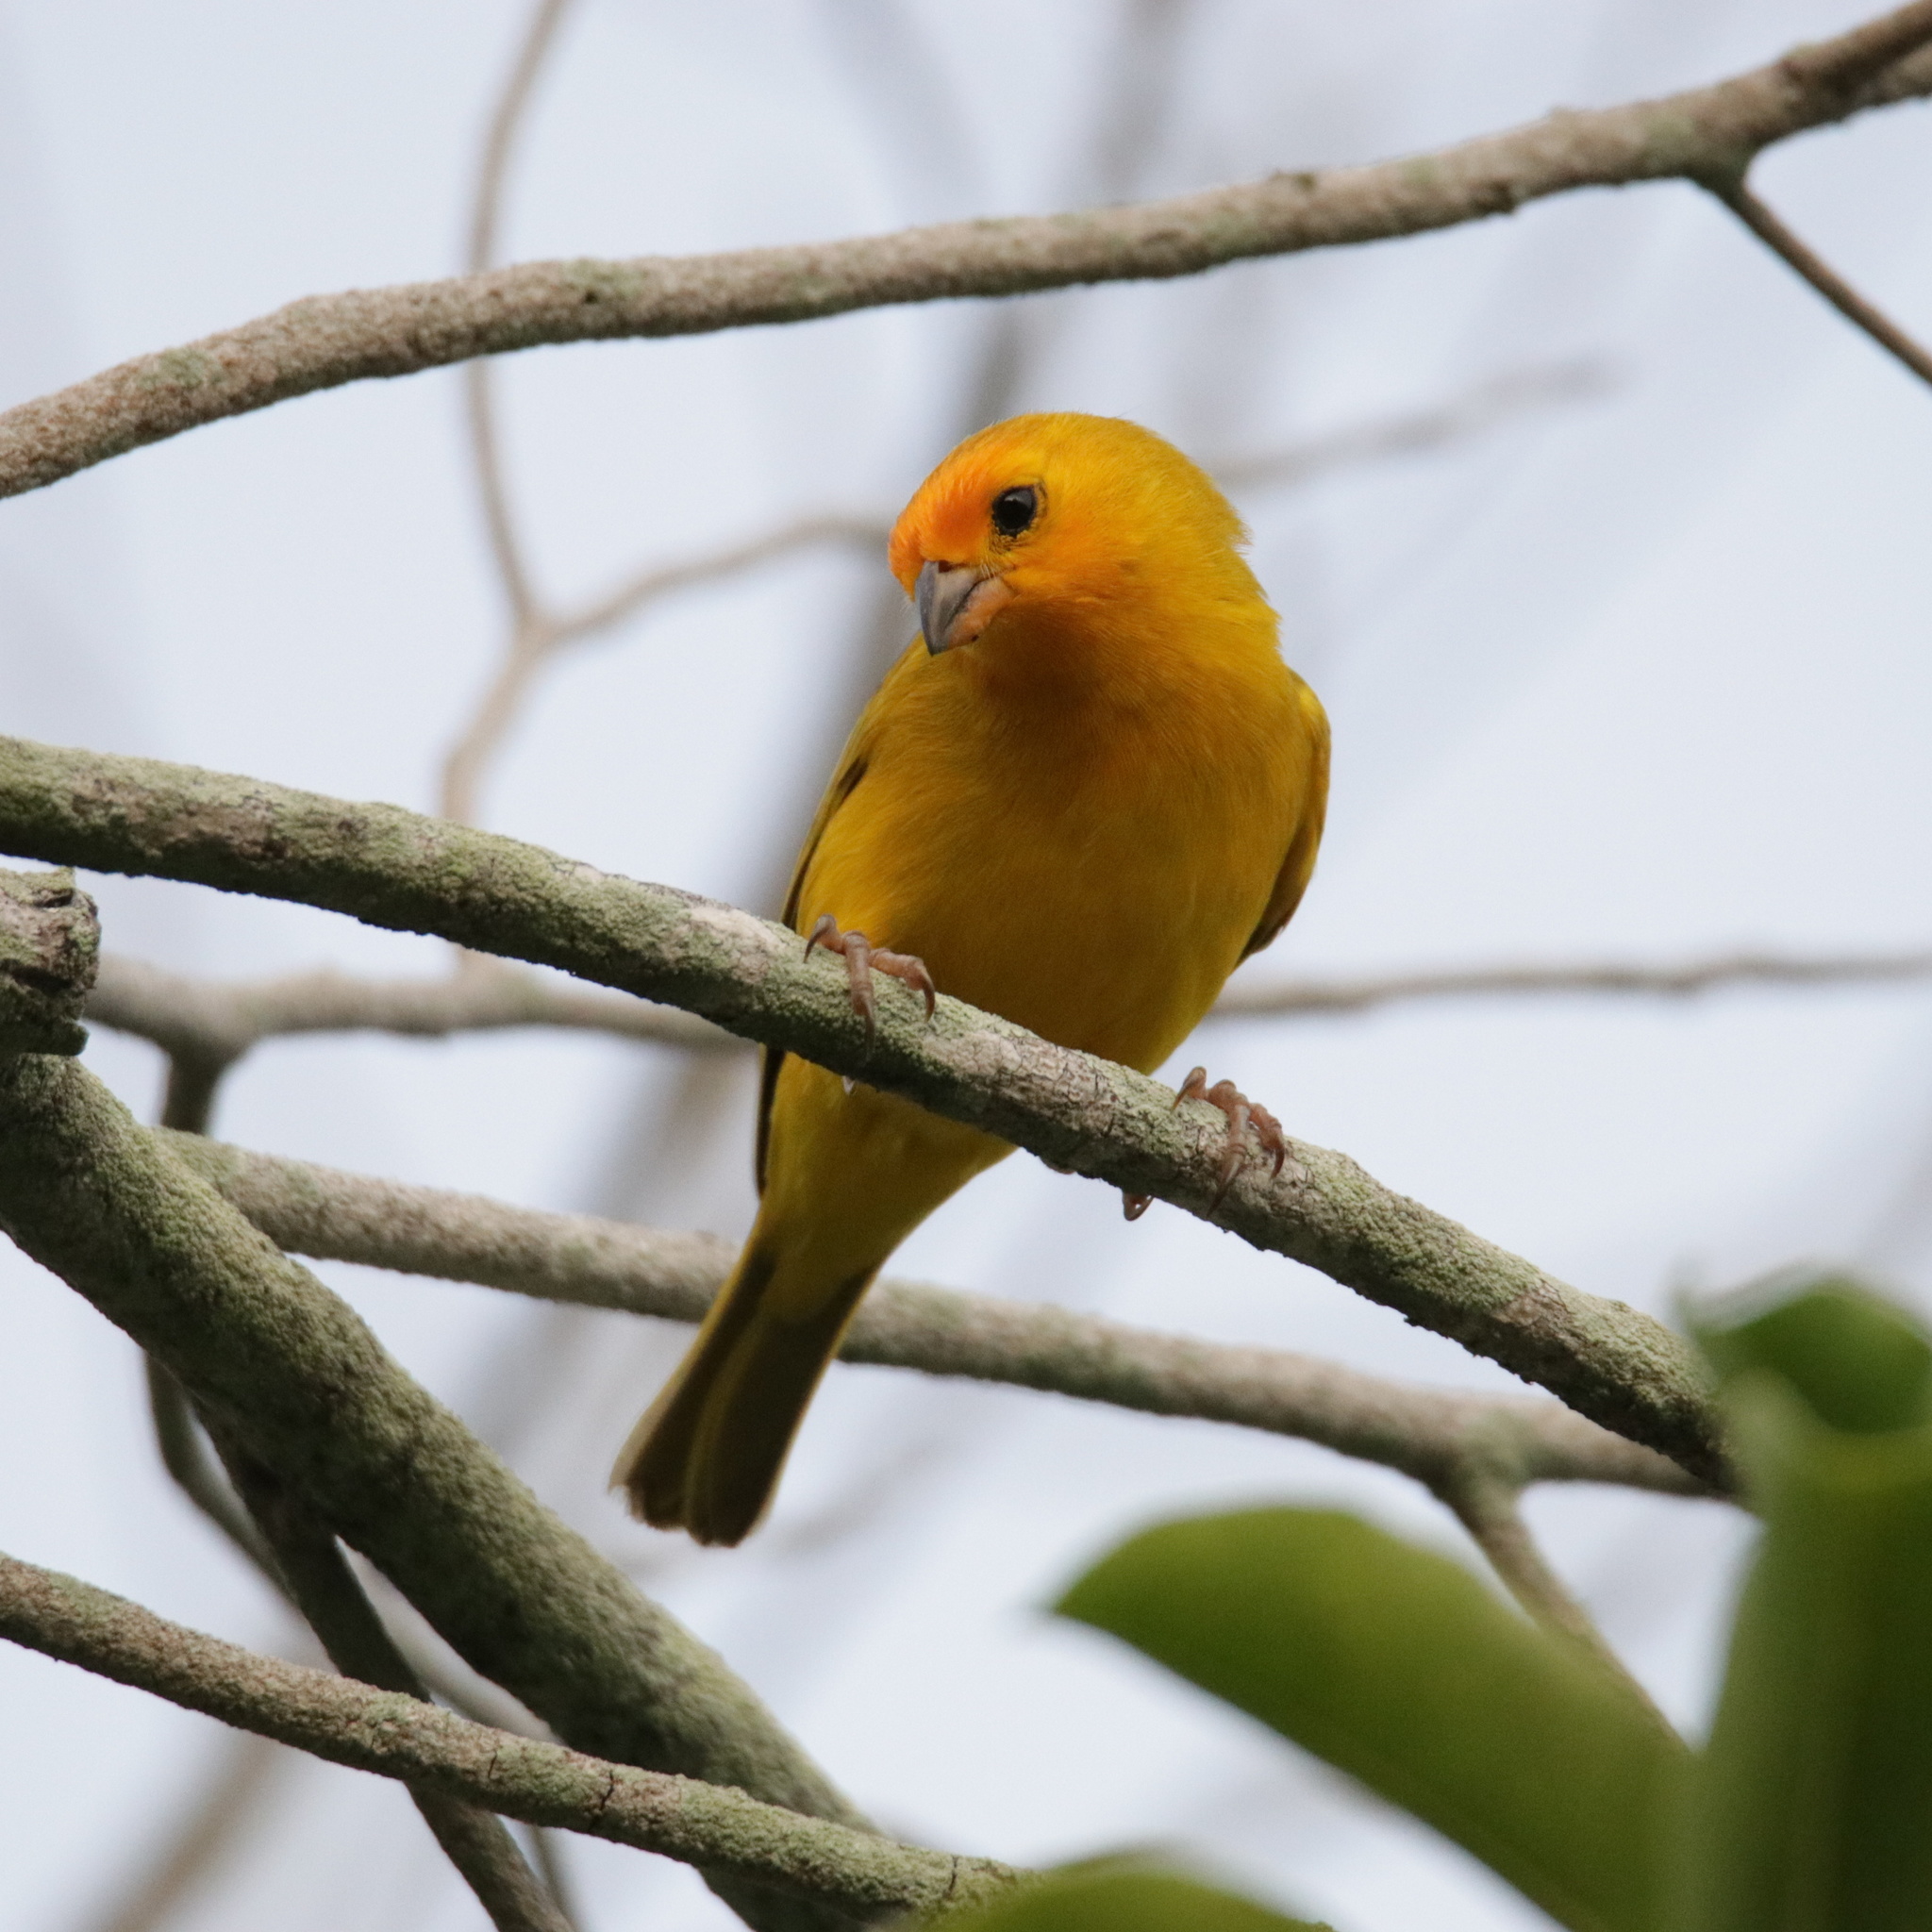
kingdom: Animalia
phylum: Chordata
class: Aves
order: Passeriformes
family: Thraupidae
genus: Sicalis
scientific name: Sicalis flaveola
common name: Saffron finch
